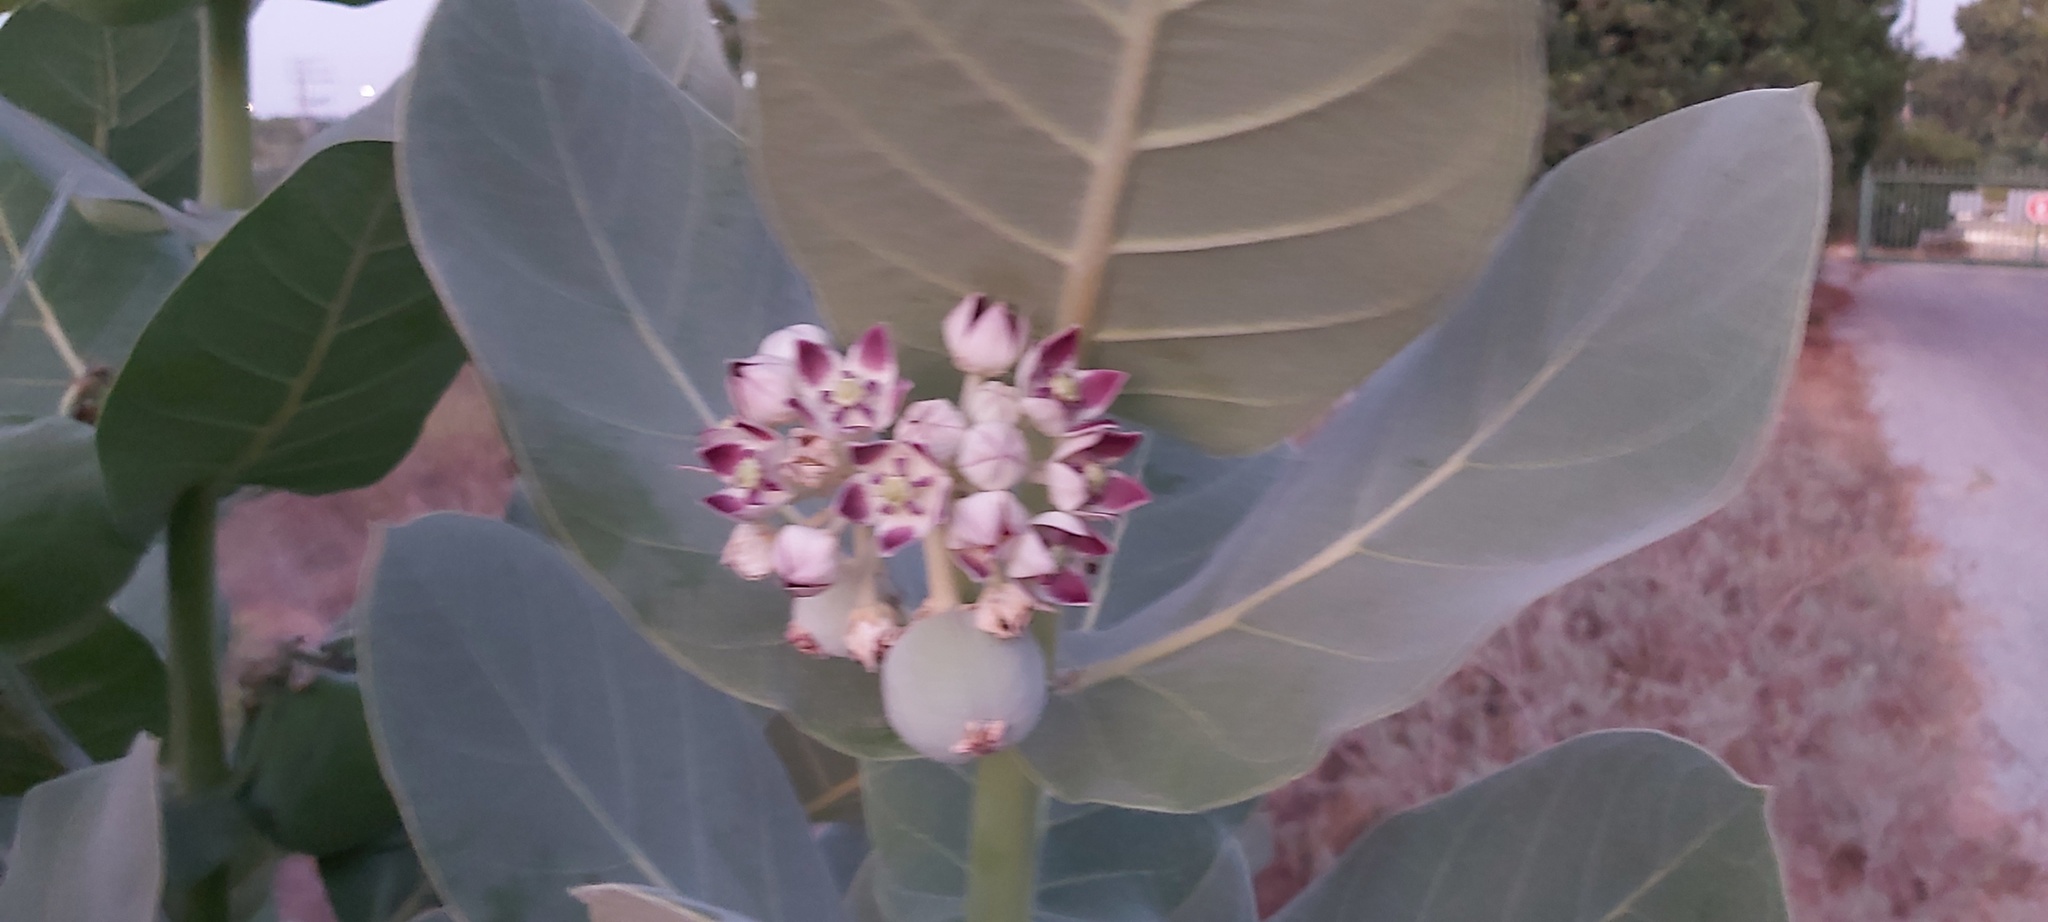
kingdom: Plantae
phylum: Tracheophyta
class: Magnoliopsida
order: Gentianales
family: Apocynaceae
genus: Calotropis
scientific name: Calotropis procera
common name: Roostertree
